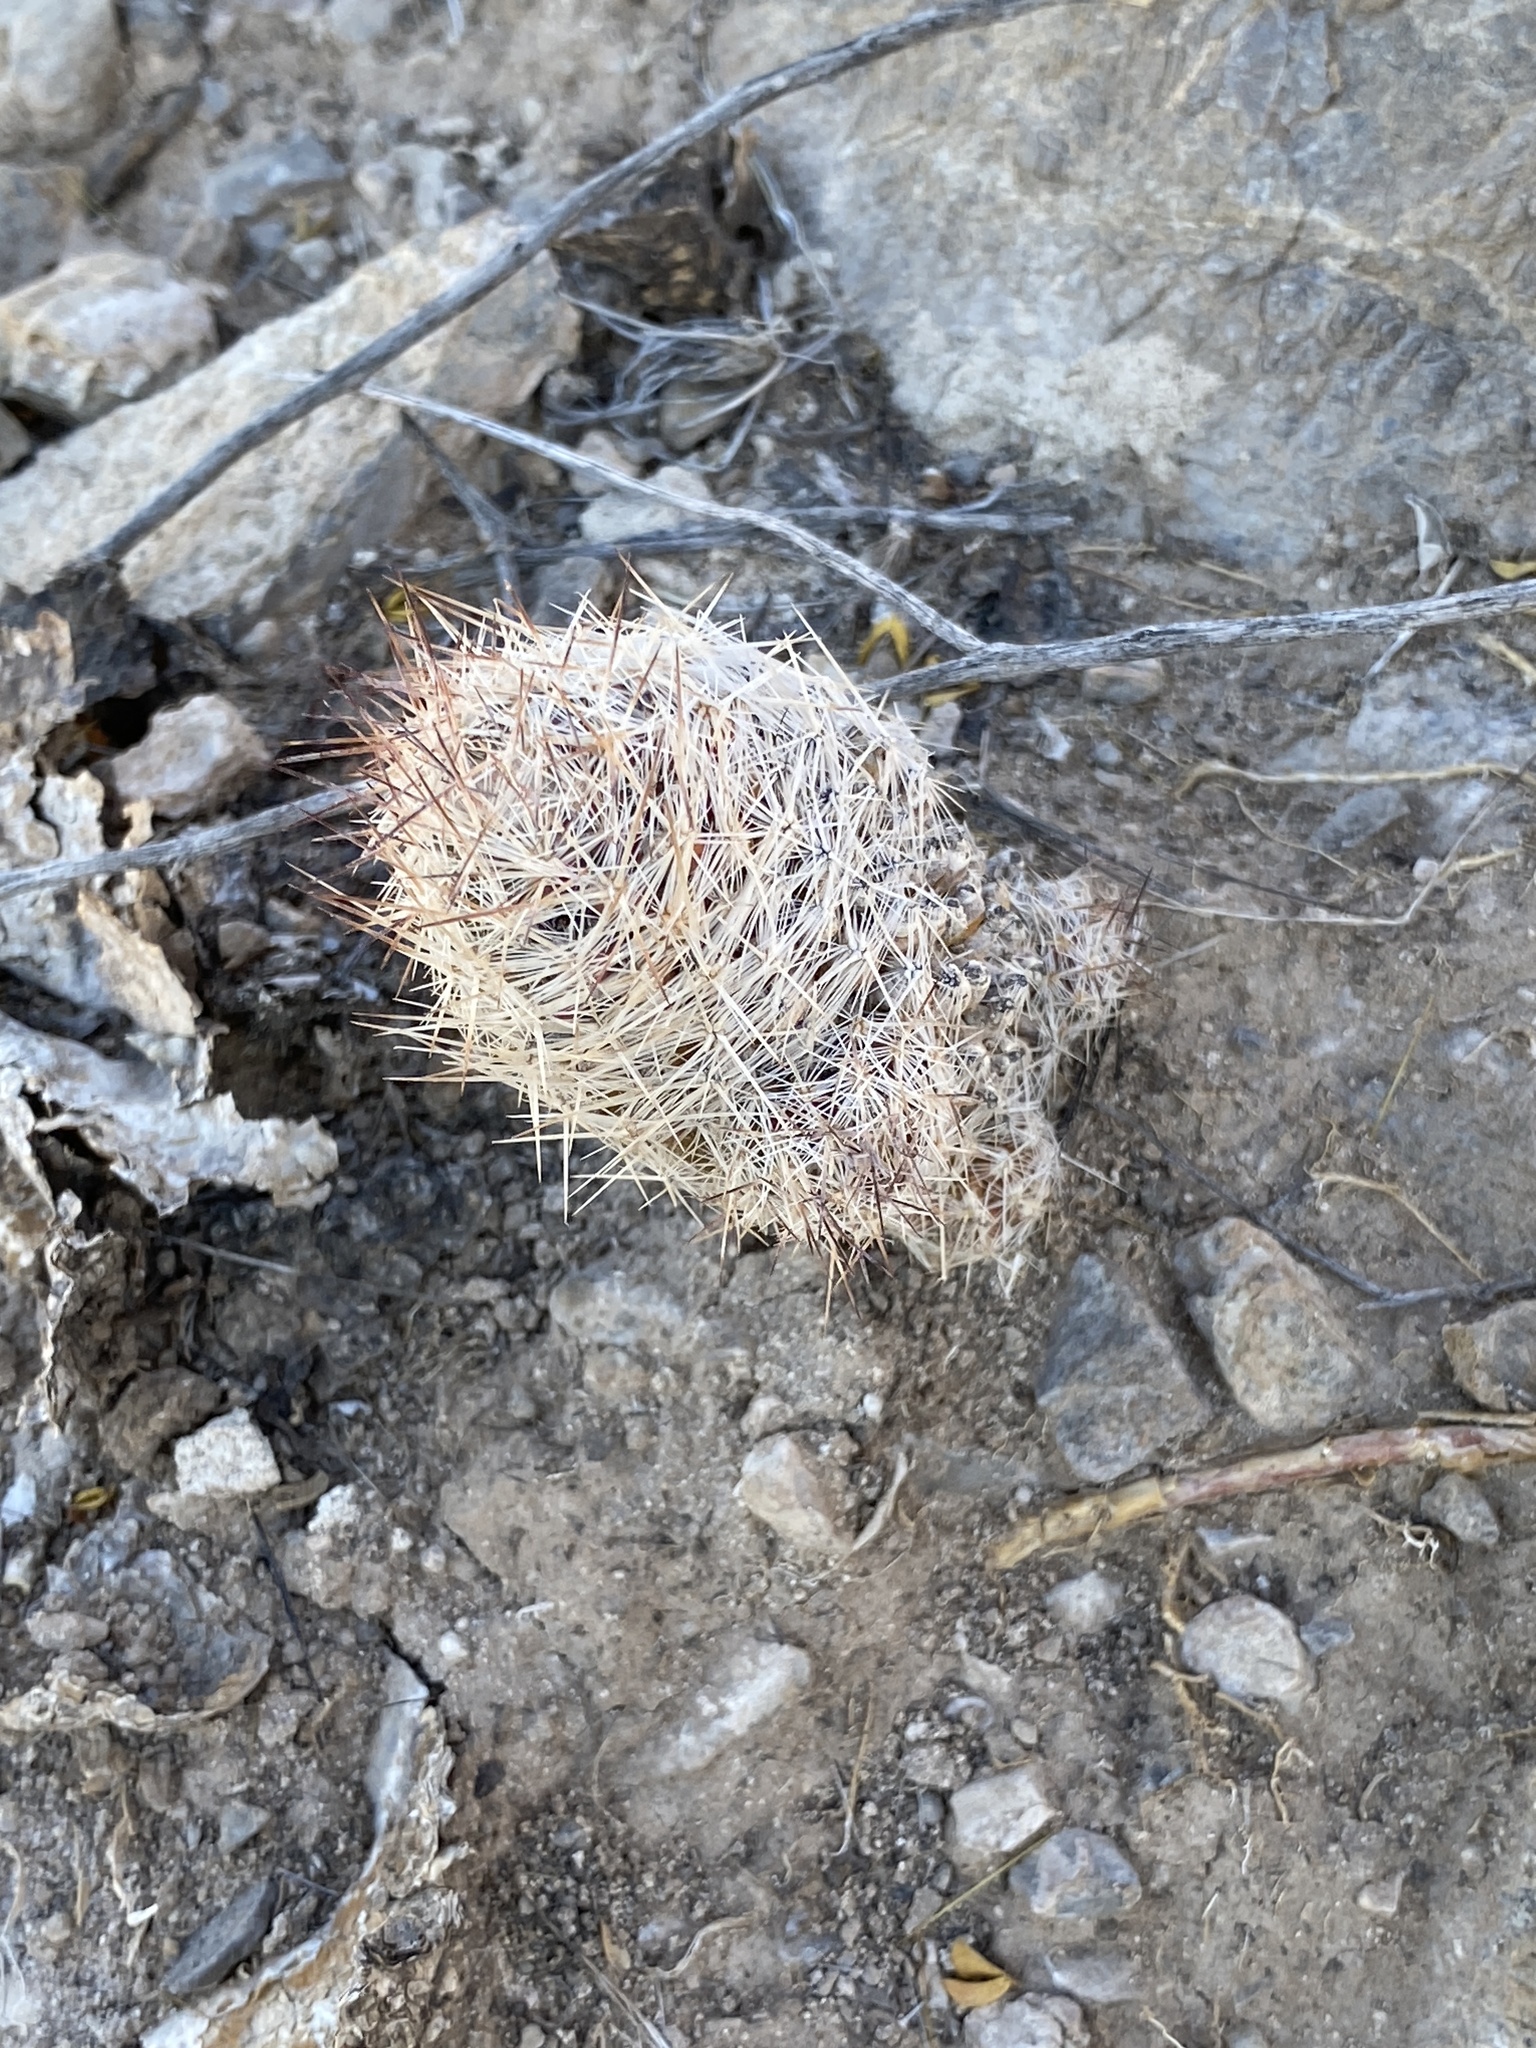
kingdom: Plantae
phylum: Tracheophyta
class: Magnoliopsida
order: Caryophyllales
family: Cactaceae
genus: Pelecyphora
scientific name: Pelecyphora tuberculosa
